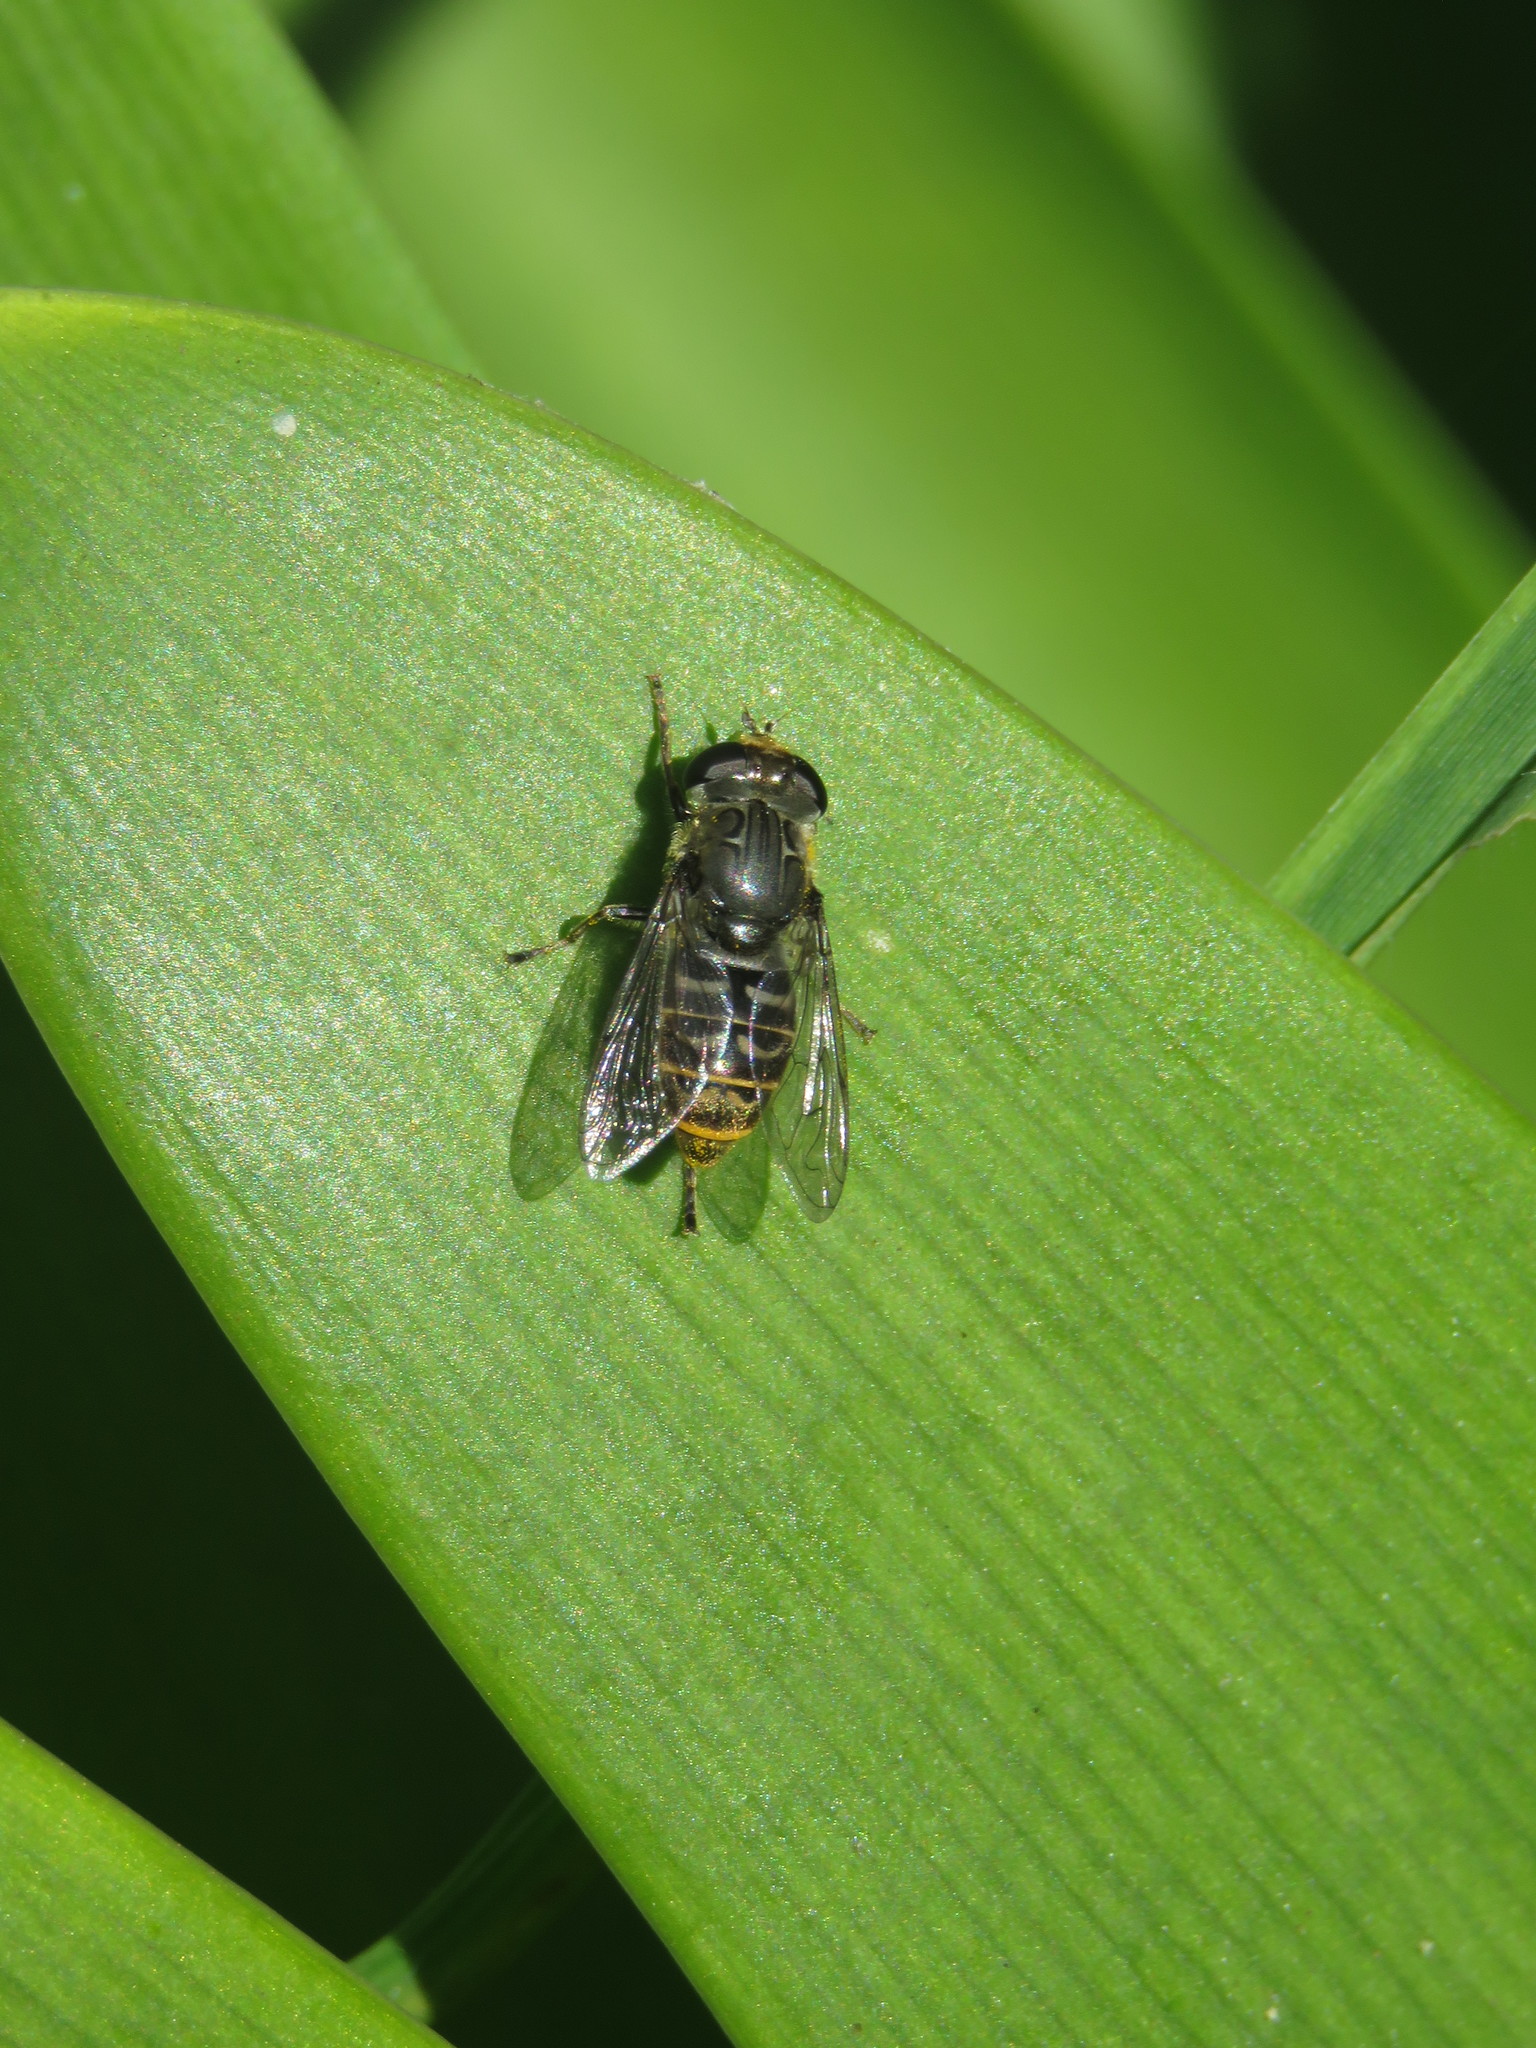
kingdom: Animalia
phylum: Arthropoda
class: Insecta
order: Diptera
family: Syrphidae
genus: Asemosyrphus
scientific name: Asemosyrphus
